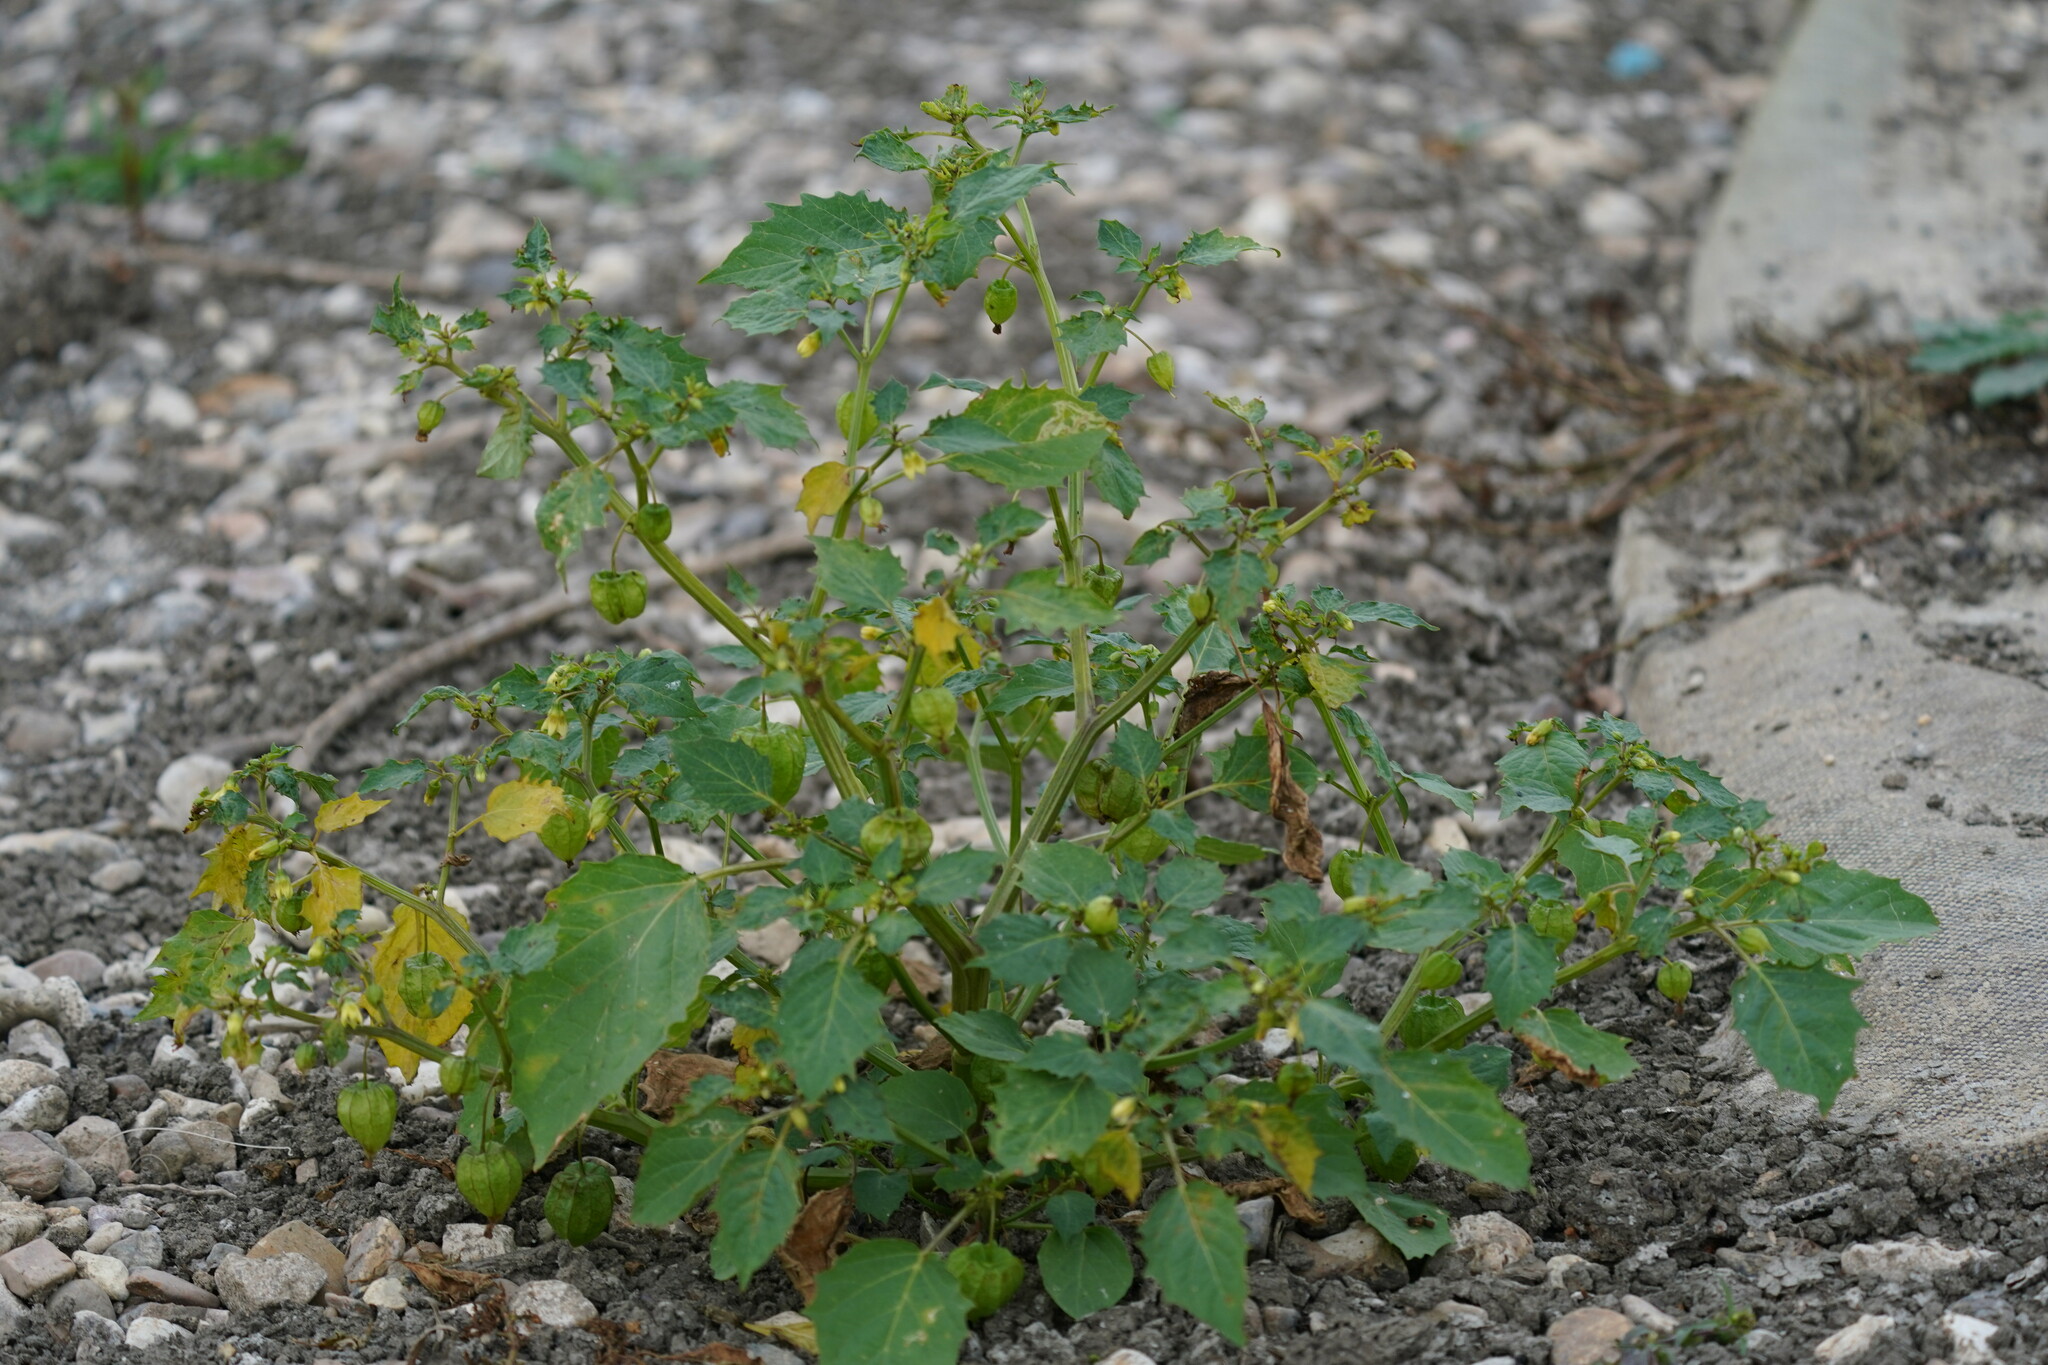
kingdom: Plantae
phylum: Tracheophyta
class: Magnoliopsida
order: Solanales
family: Solanaceae
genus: Physalis
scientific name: Physalis angulata
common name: Angular winter-cherry
